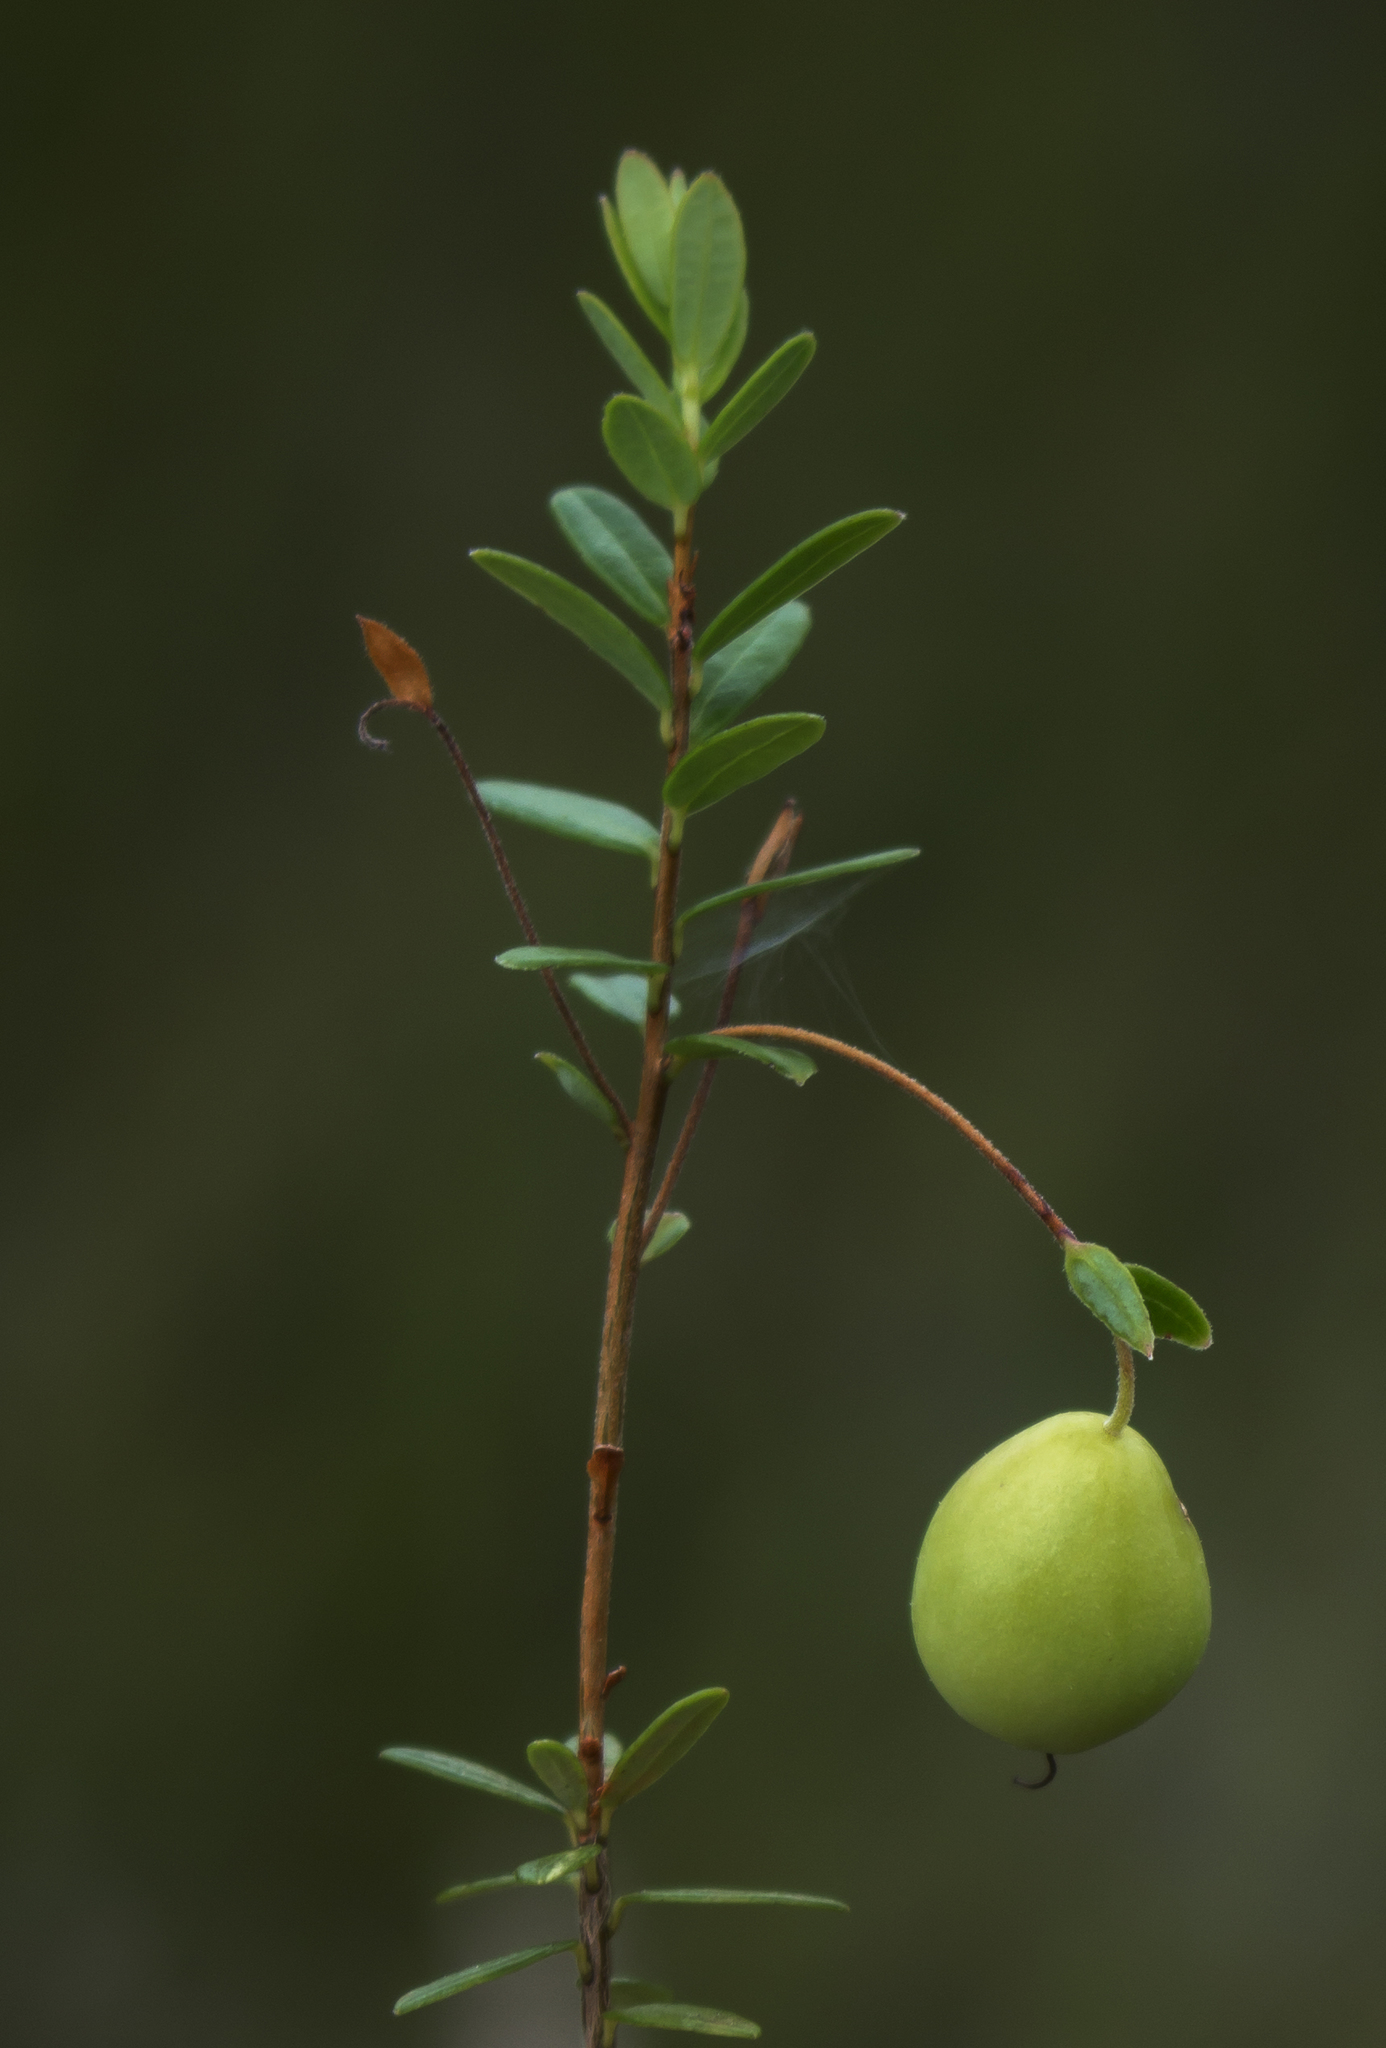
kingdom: Plantae
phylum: Tracheophyta
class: Magnoliopsida
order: Ericales
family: Ericaceae
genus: Vaccinium
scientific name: Vaccinium macrocarpon
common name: American cranberry
